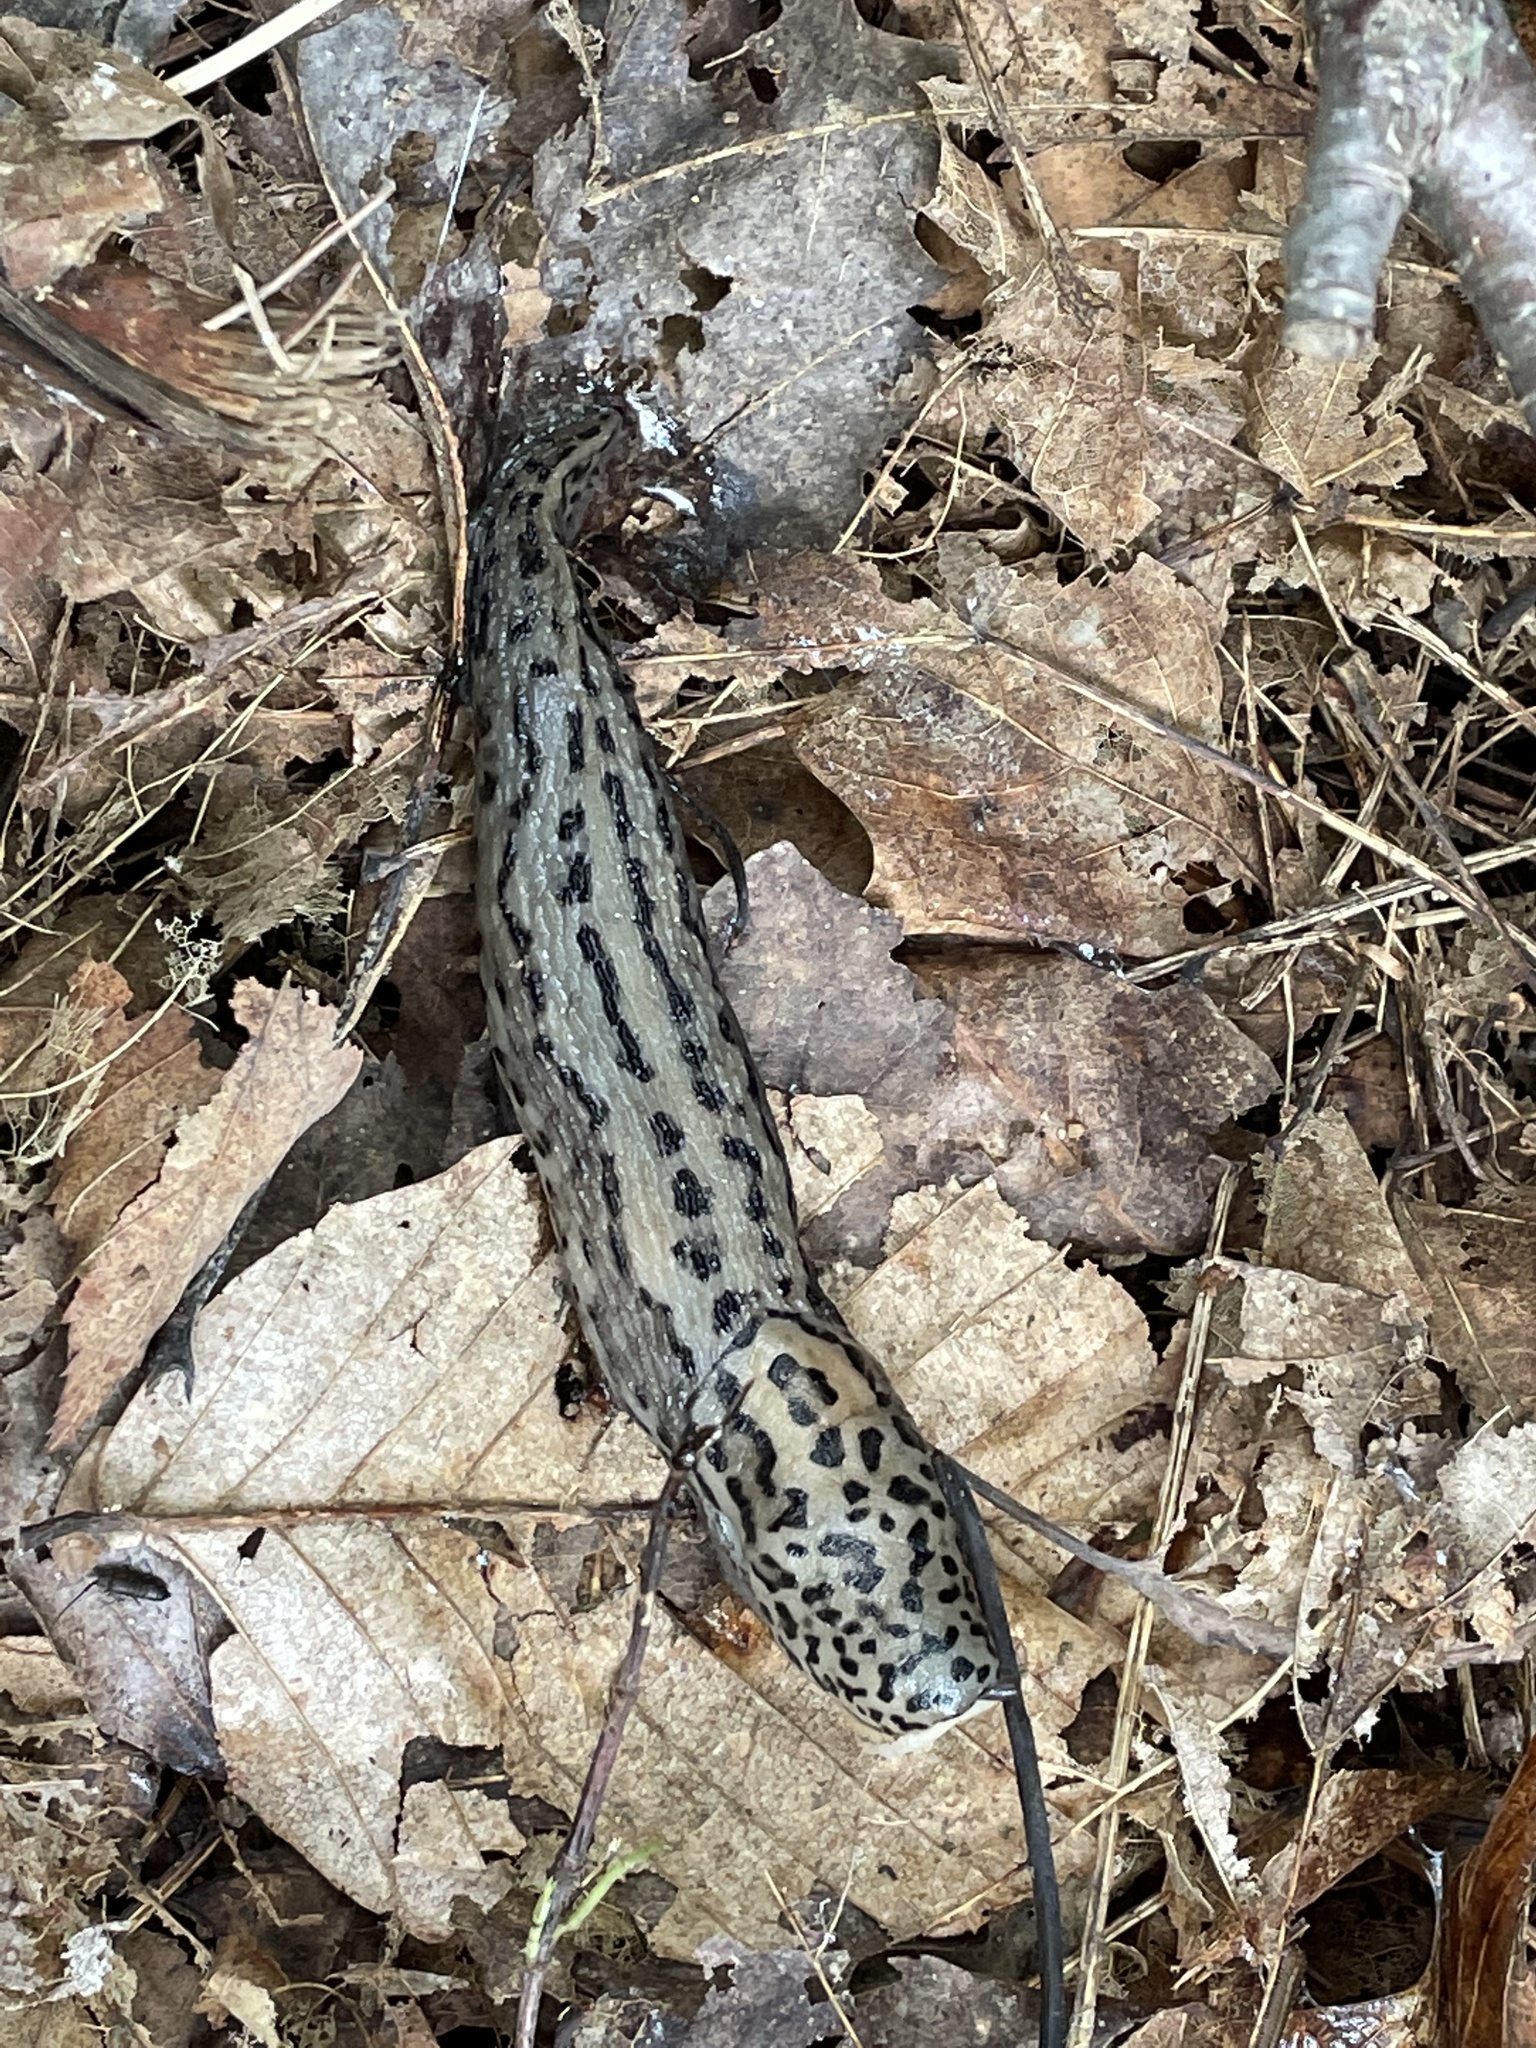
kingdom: Animalia
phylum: Mollusca
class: Gastropoda
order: Stylommatophora
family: Limacidae
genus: Limax
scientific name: Limax maximus
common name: Great grey slug
